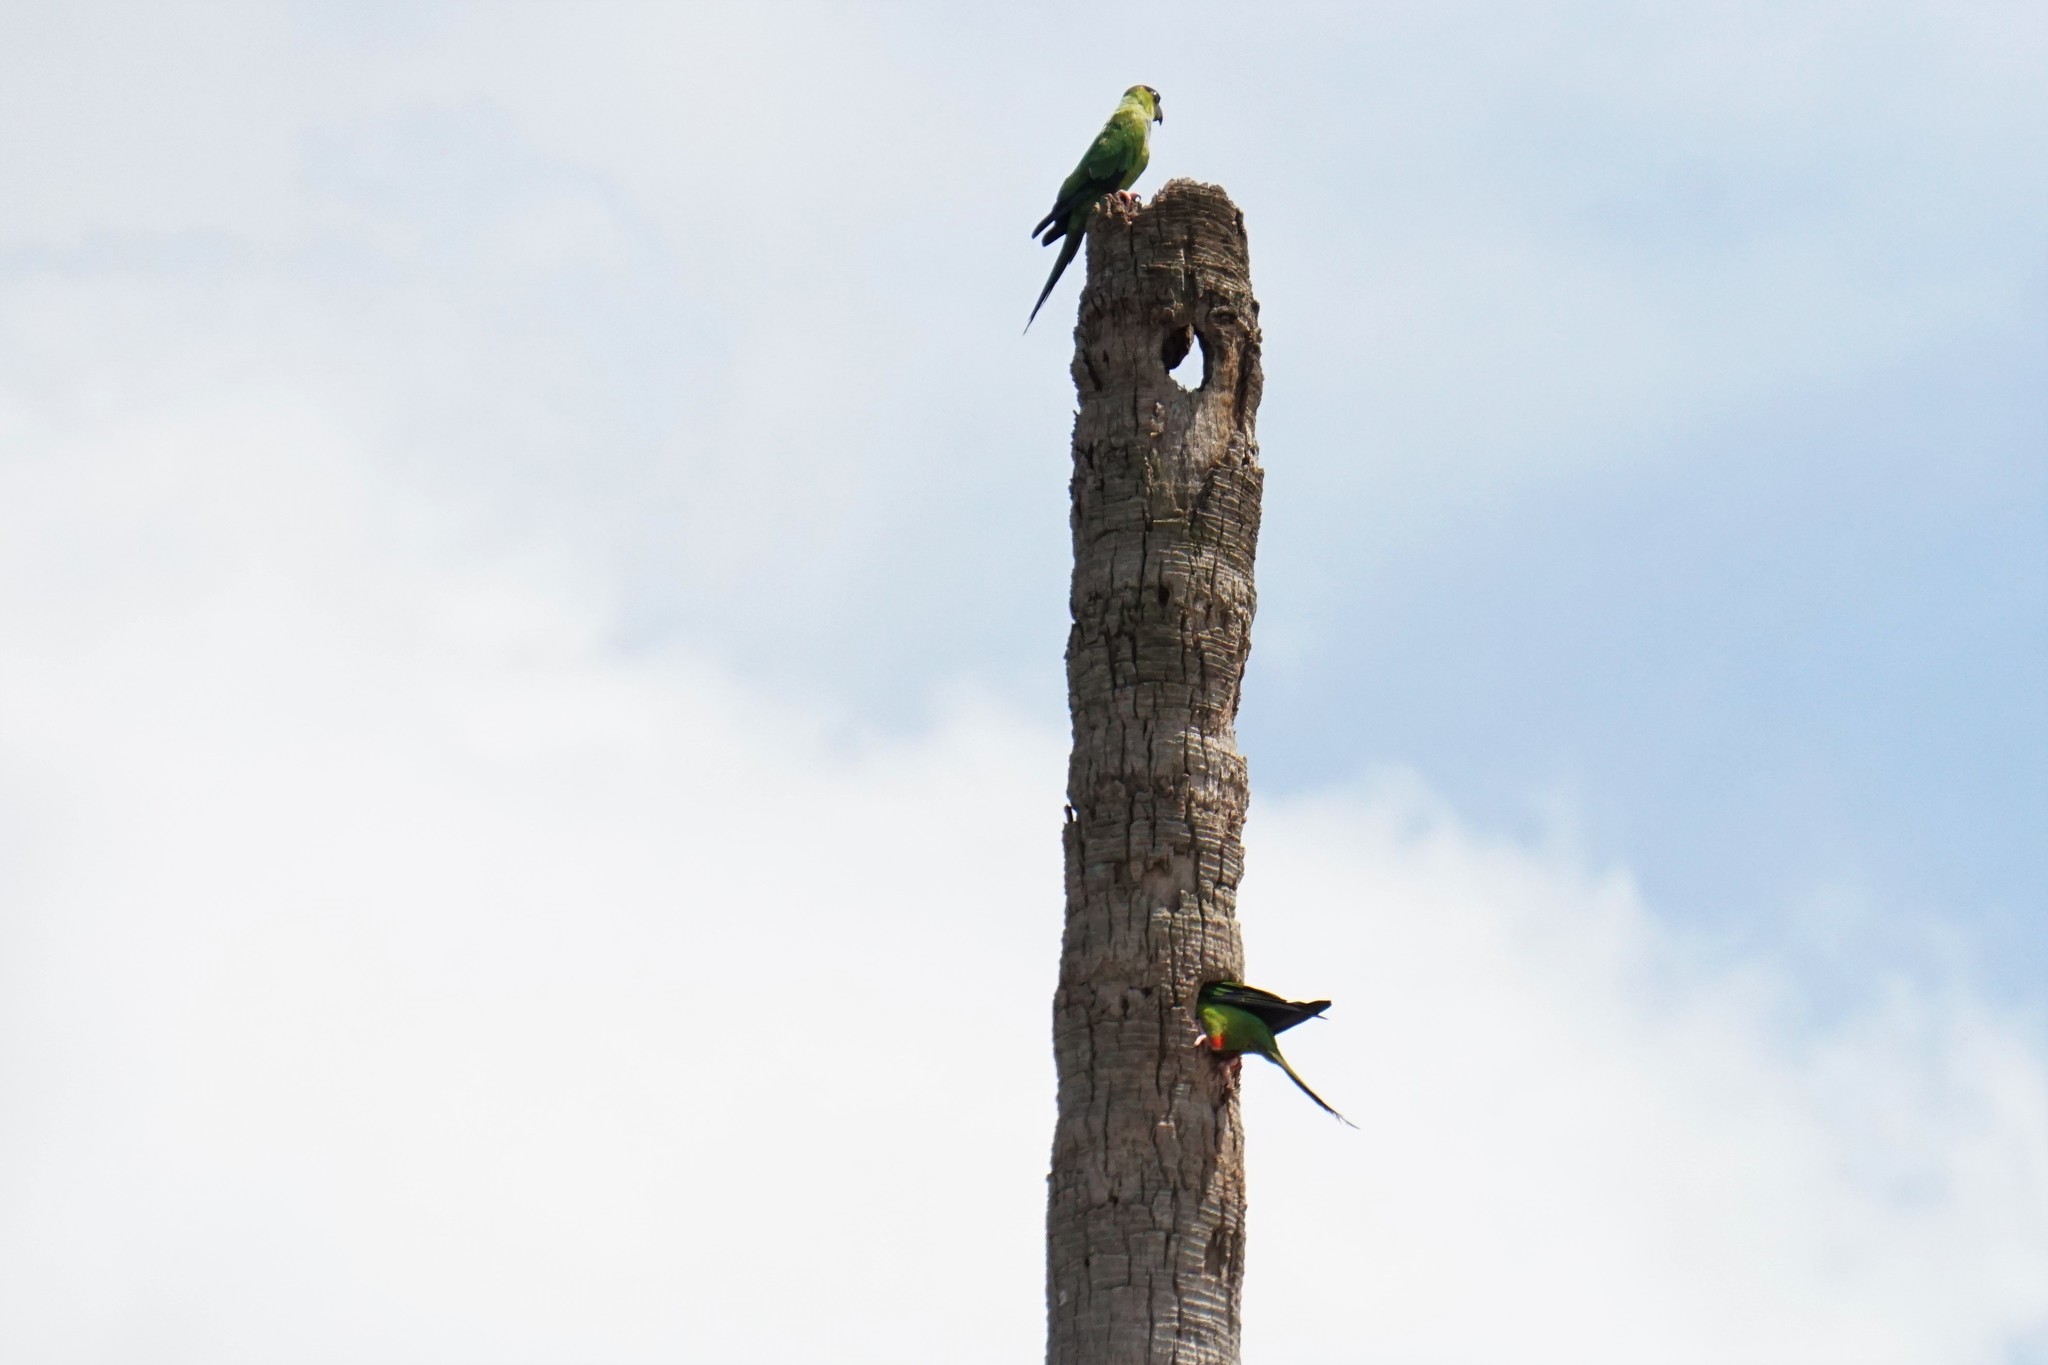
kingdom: Animalia
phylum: Chordata
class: Aves
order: Psittaciformes
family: Psittacidae
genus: Nandayus
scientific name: Nandayus nenday
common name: Nanday parakeet
